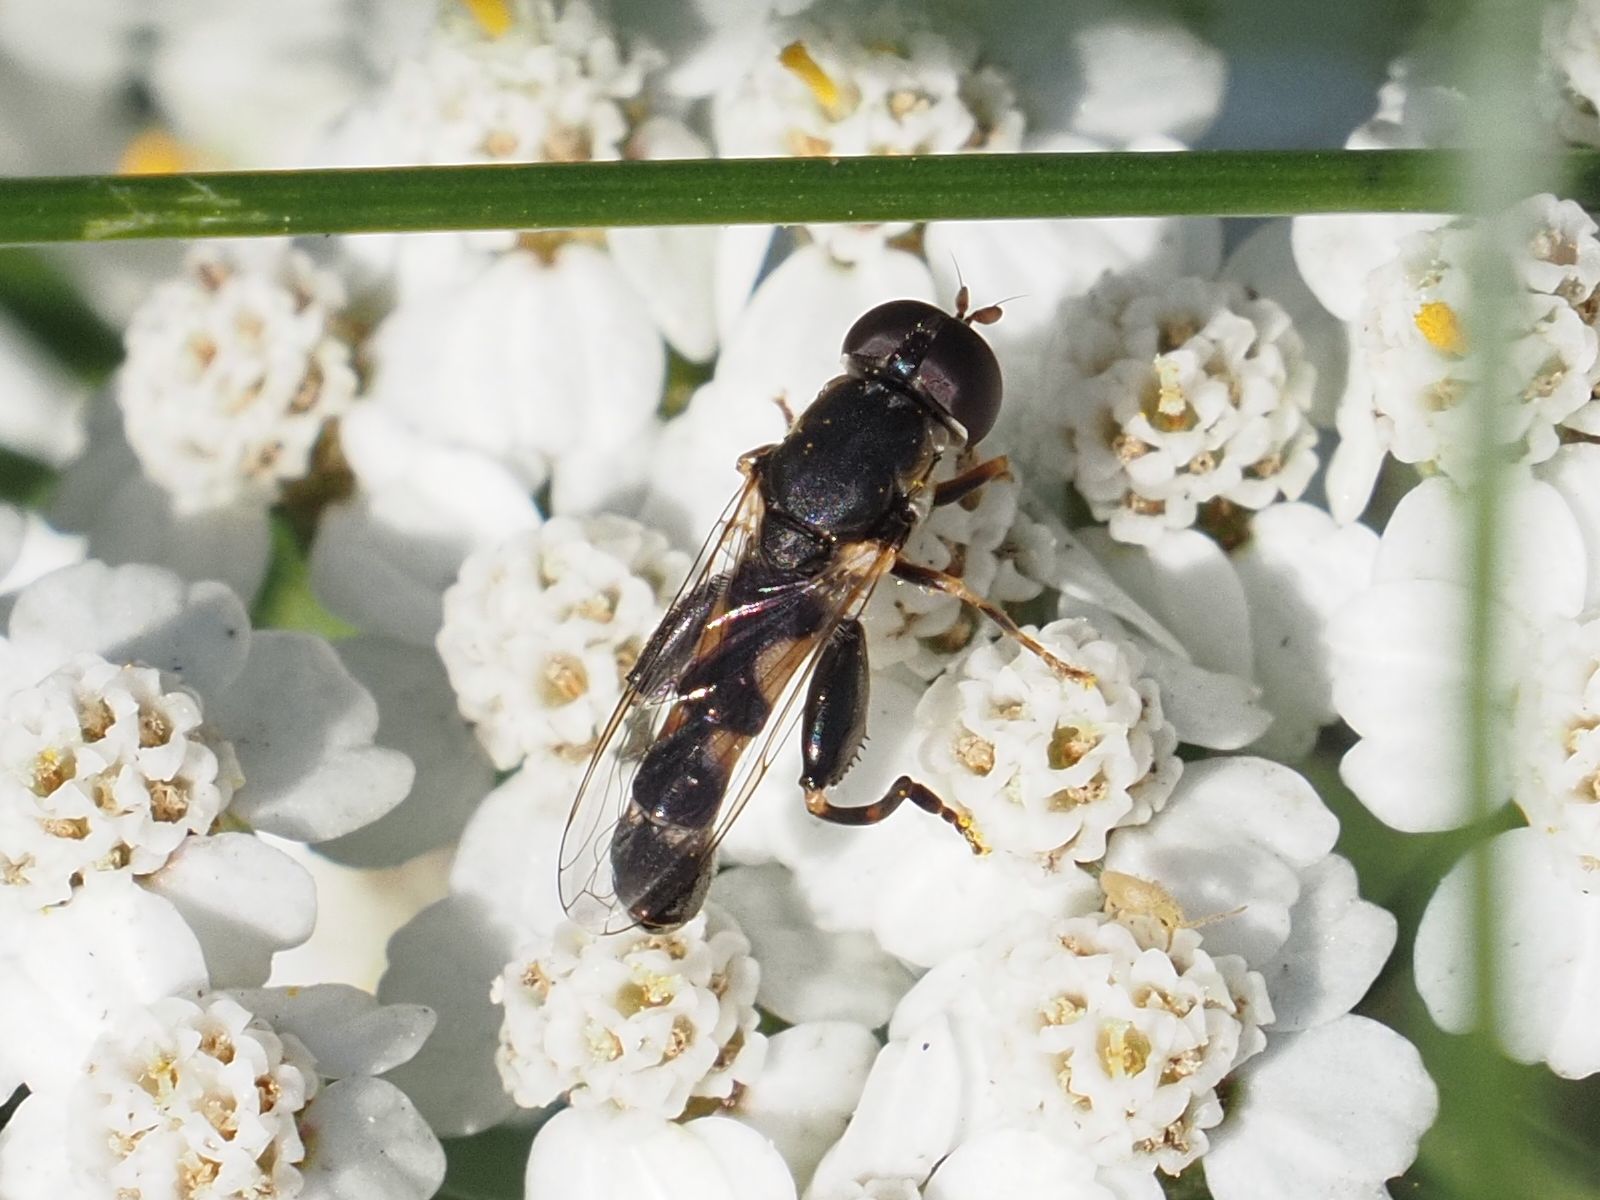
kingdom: Animalia
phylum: Arthropoda
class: Insecta
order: Diptera
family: Syrphidae
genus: Syritta
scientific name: Syritta pipiens
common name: Hover fly
